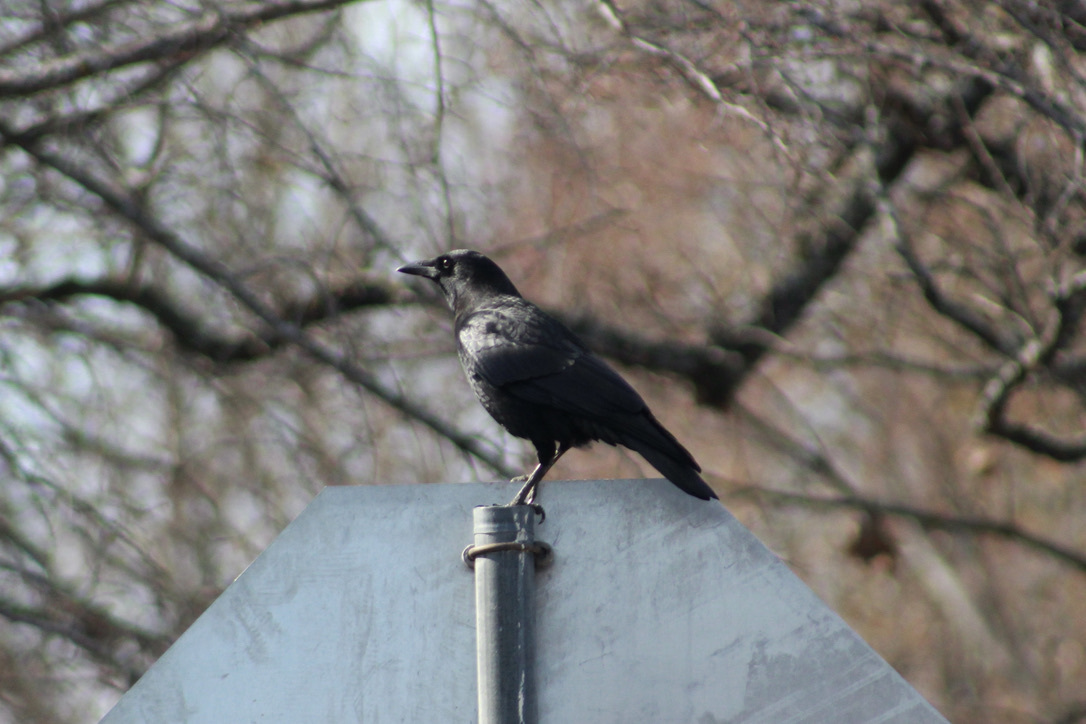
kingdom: Animalia
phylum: Chordata
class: Aves
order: Passeriformes
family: Corvidae
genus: Corvus
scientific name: Corvus brachyrhynchos
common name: American crow
